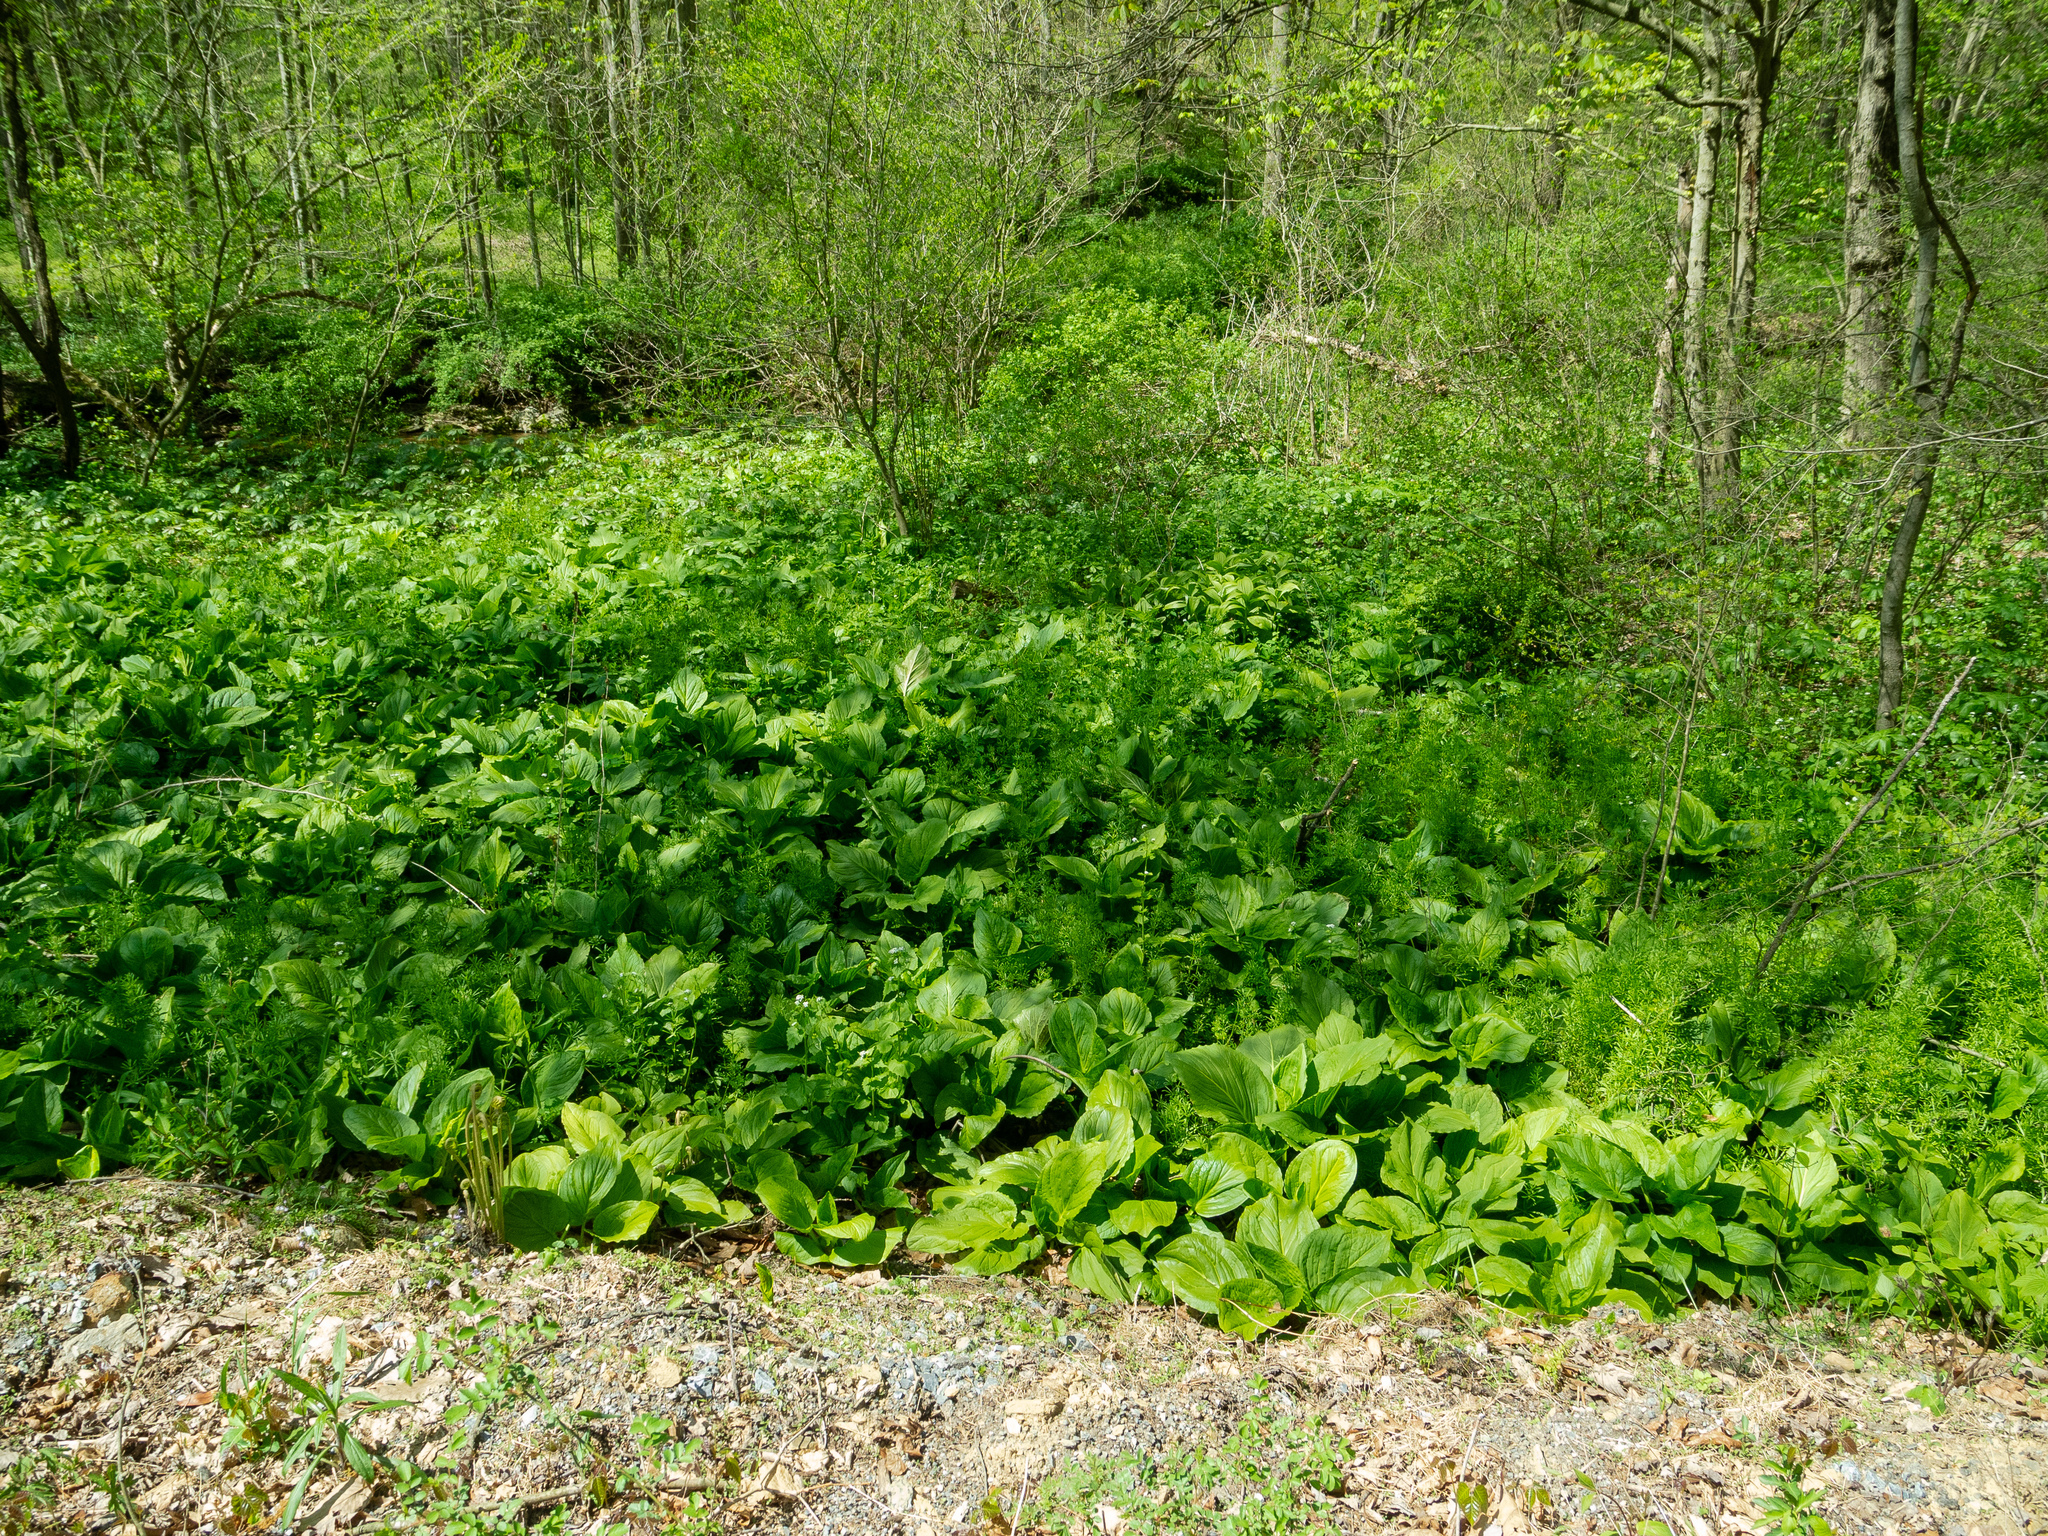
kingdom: Plantae
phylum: Tracheophyta
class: Magnoliopsida
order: Gentianales
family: Rubiaceae
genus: Galium
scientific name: Galium aparine
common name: Cleavers
